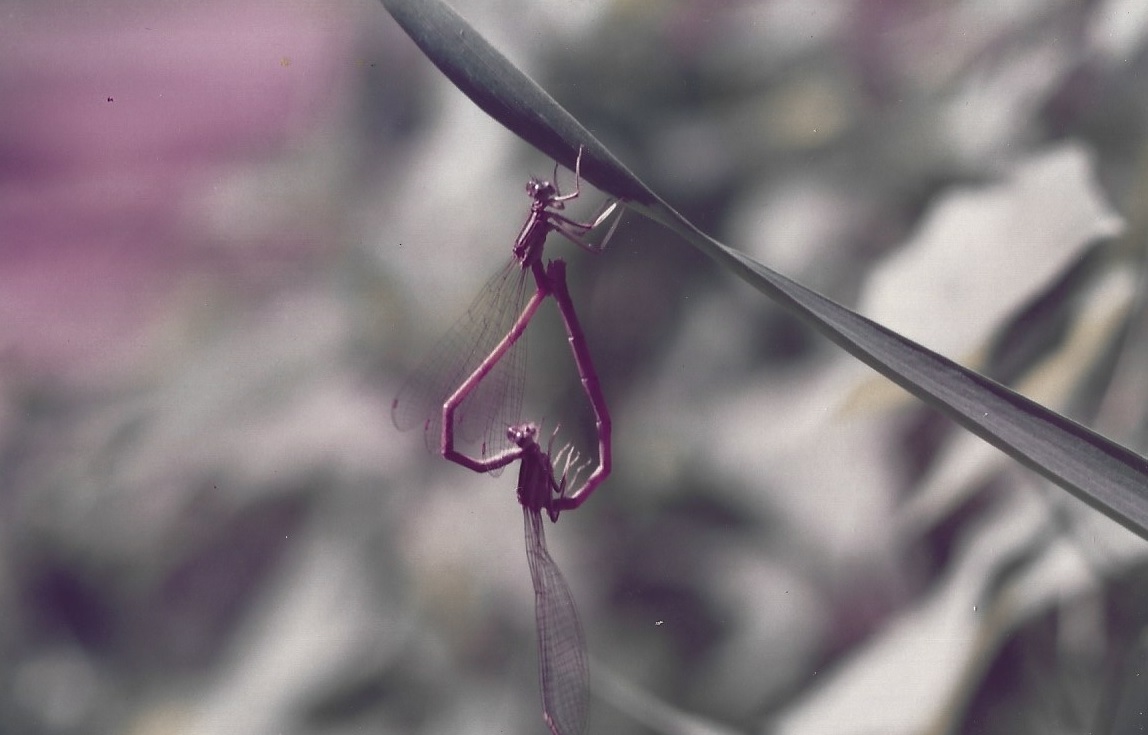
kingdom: Animalia
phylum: Arthropoda
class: Insecta
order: Odonata
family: Platycnemididae
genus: Platycnemis
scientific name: Platycnemis acutipennis
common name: Orange featherleg
